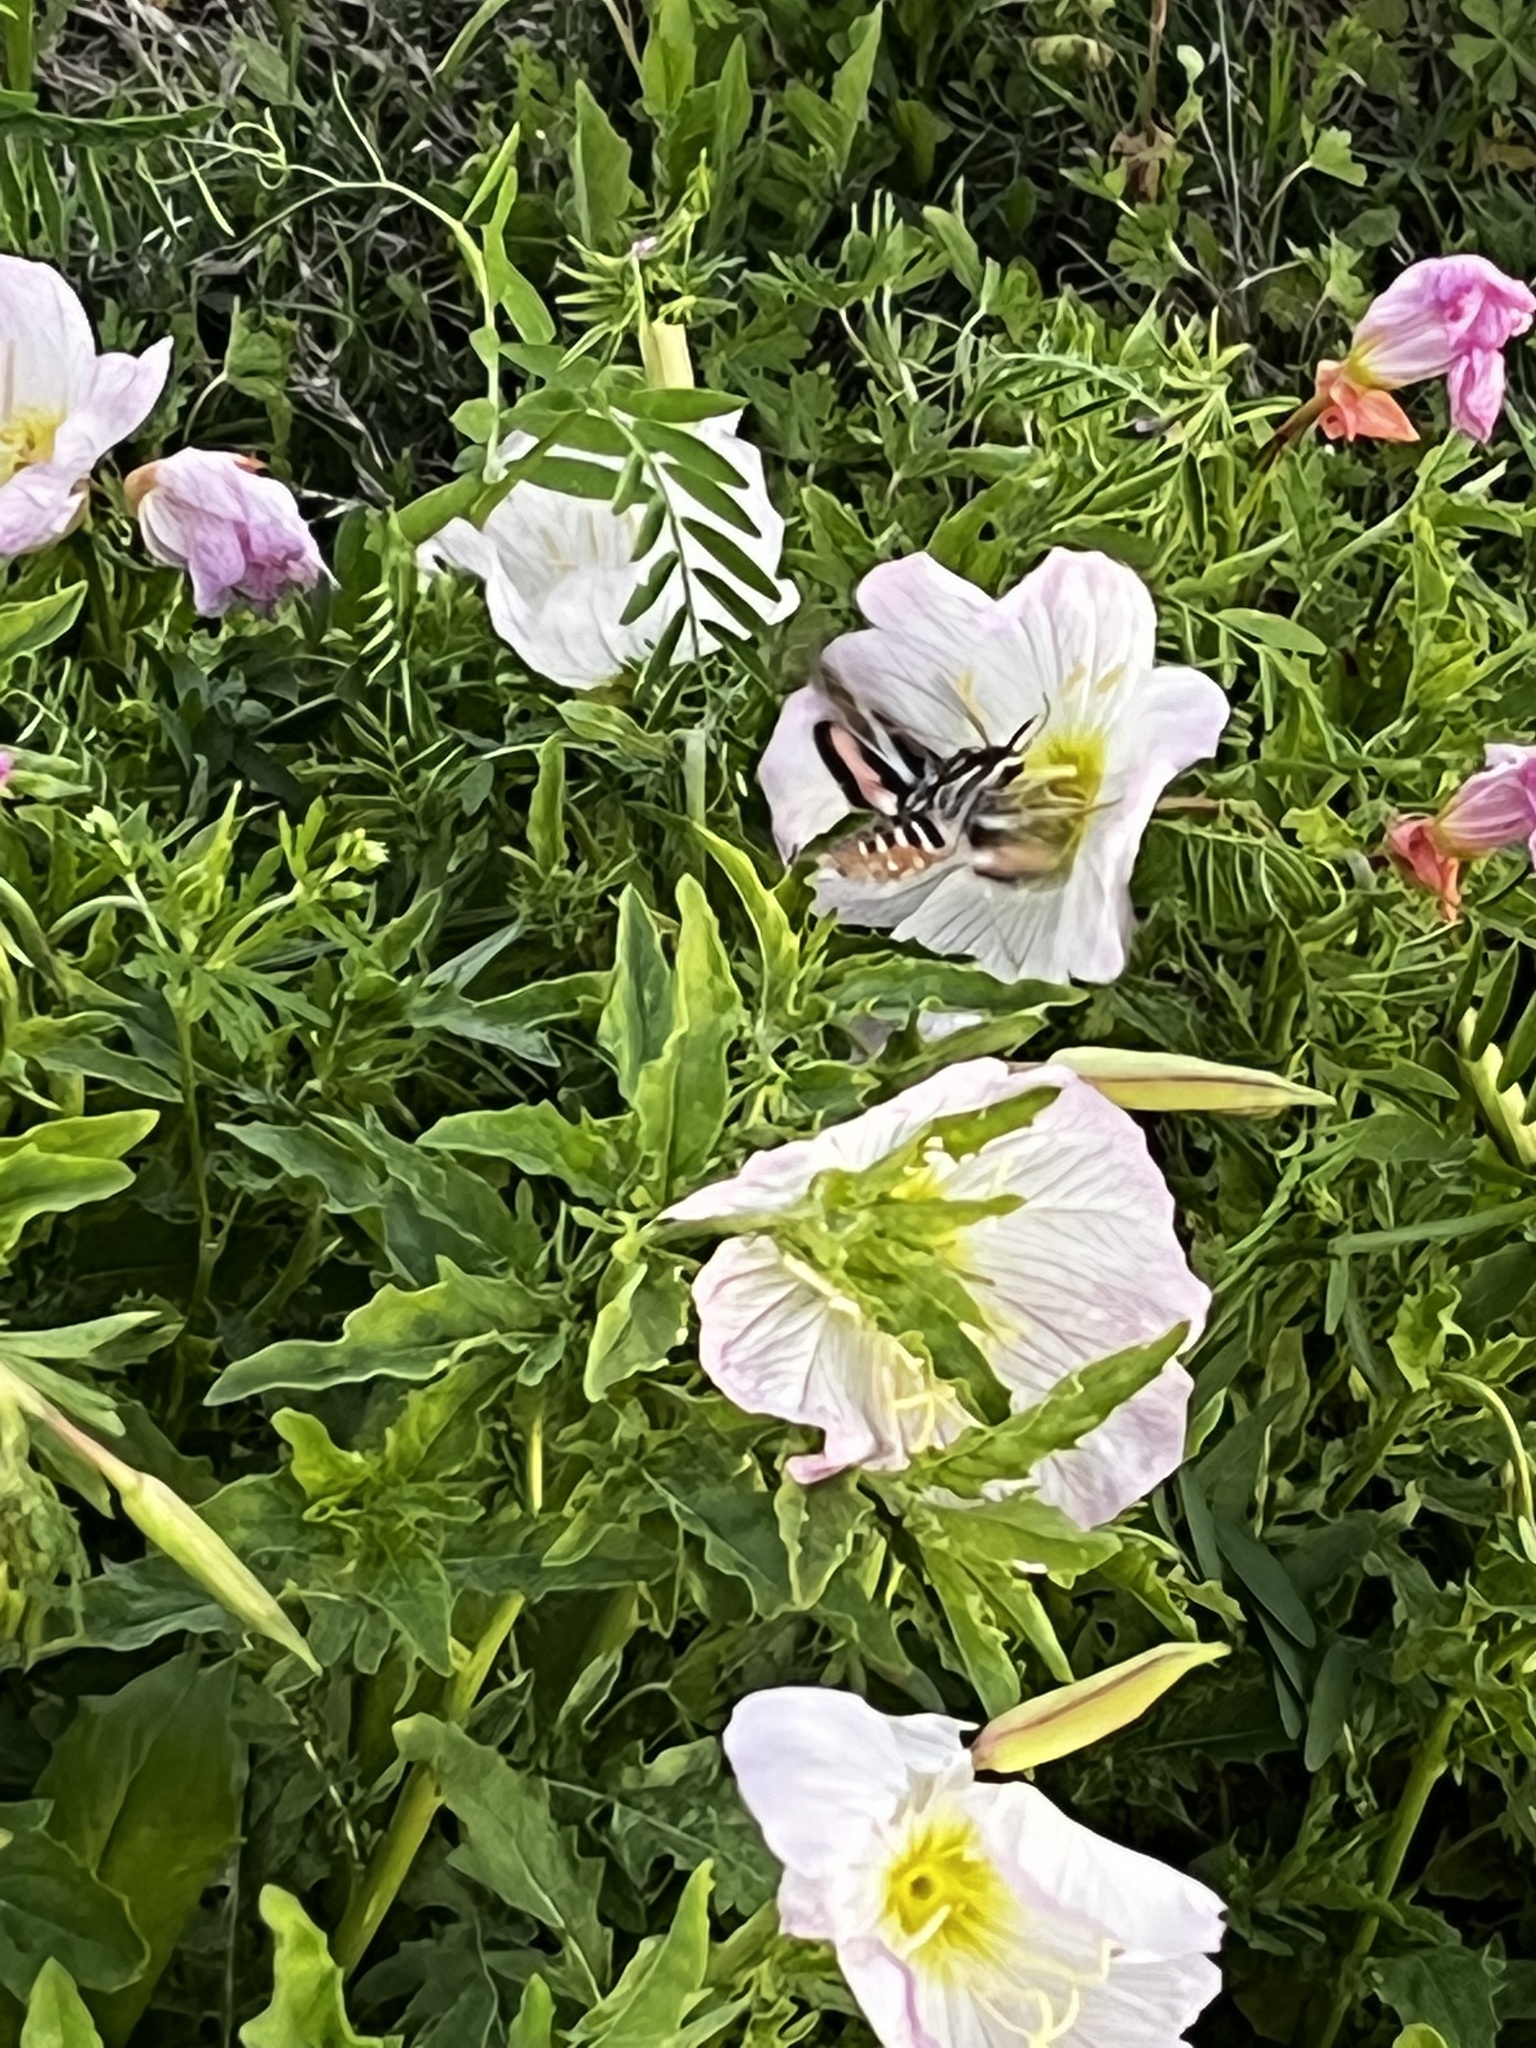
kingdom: Animalia
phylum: Arthropoda
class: Insecta
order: Lepidoptera
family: Sphingidae
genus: Hyles
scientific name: Hyles lineata
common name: White-lined sphinx
